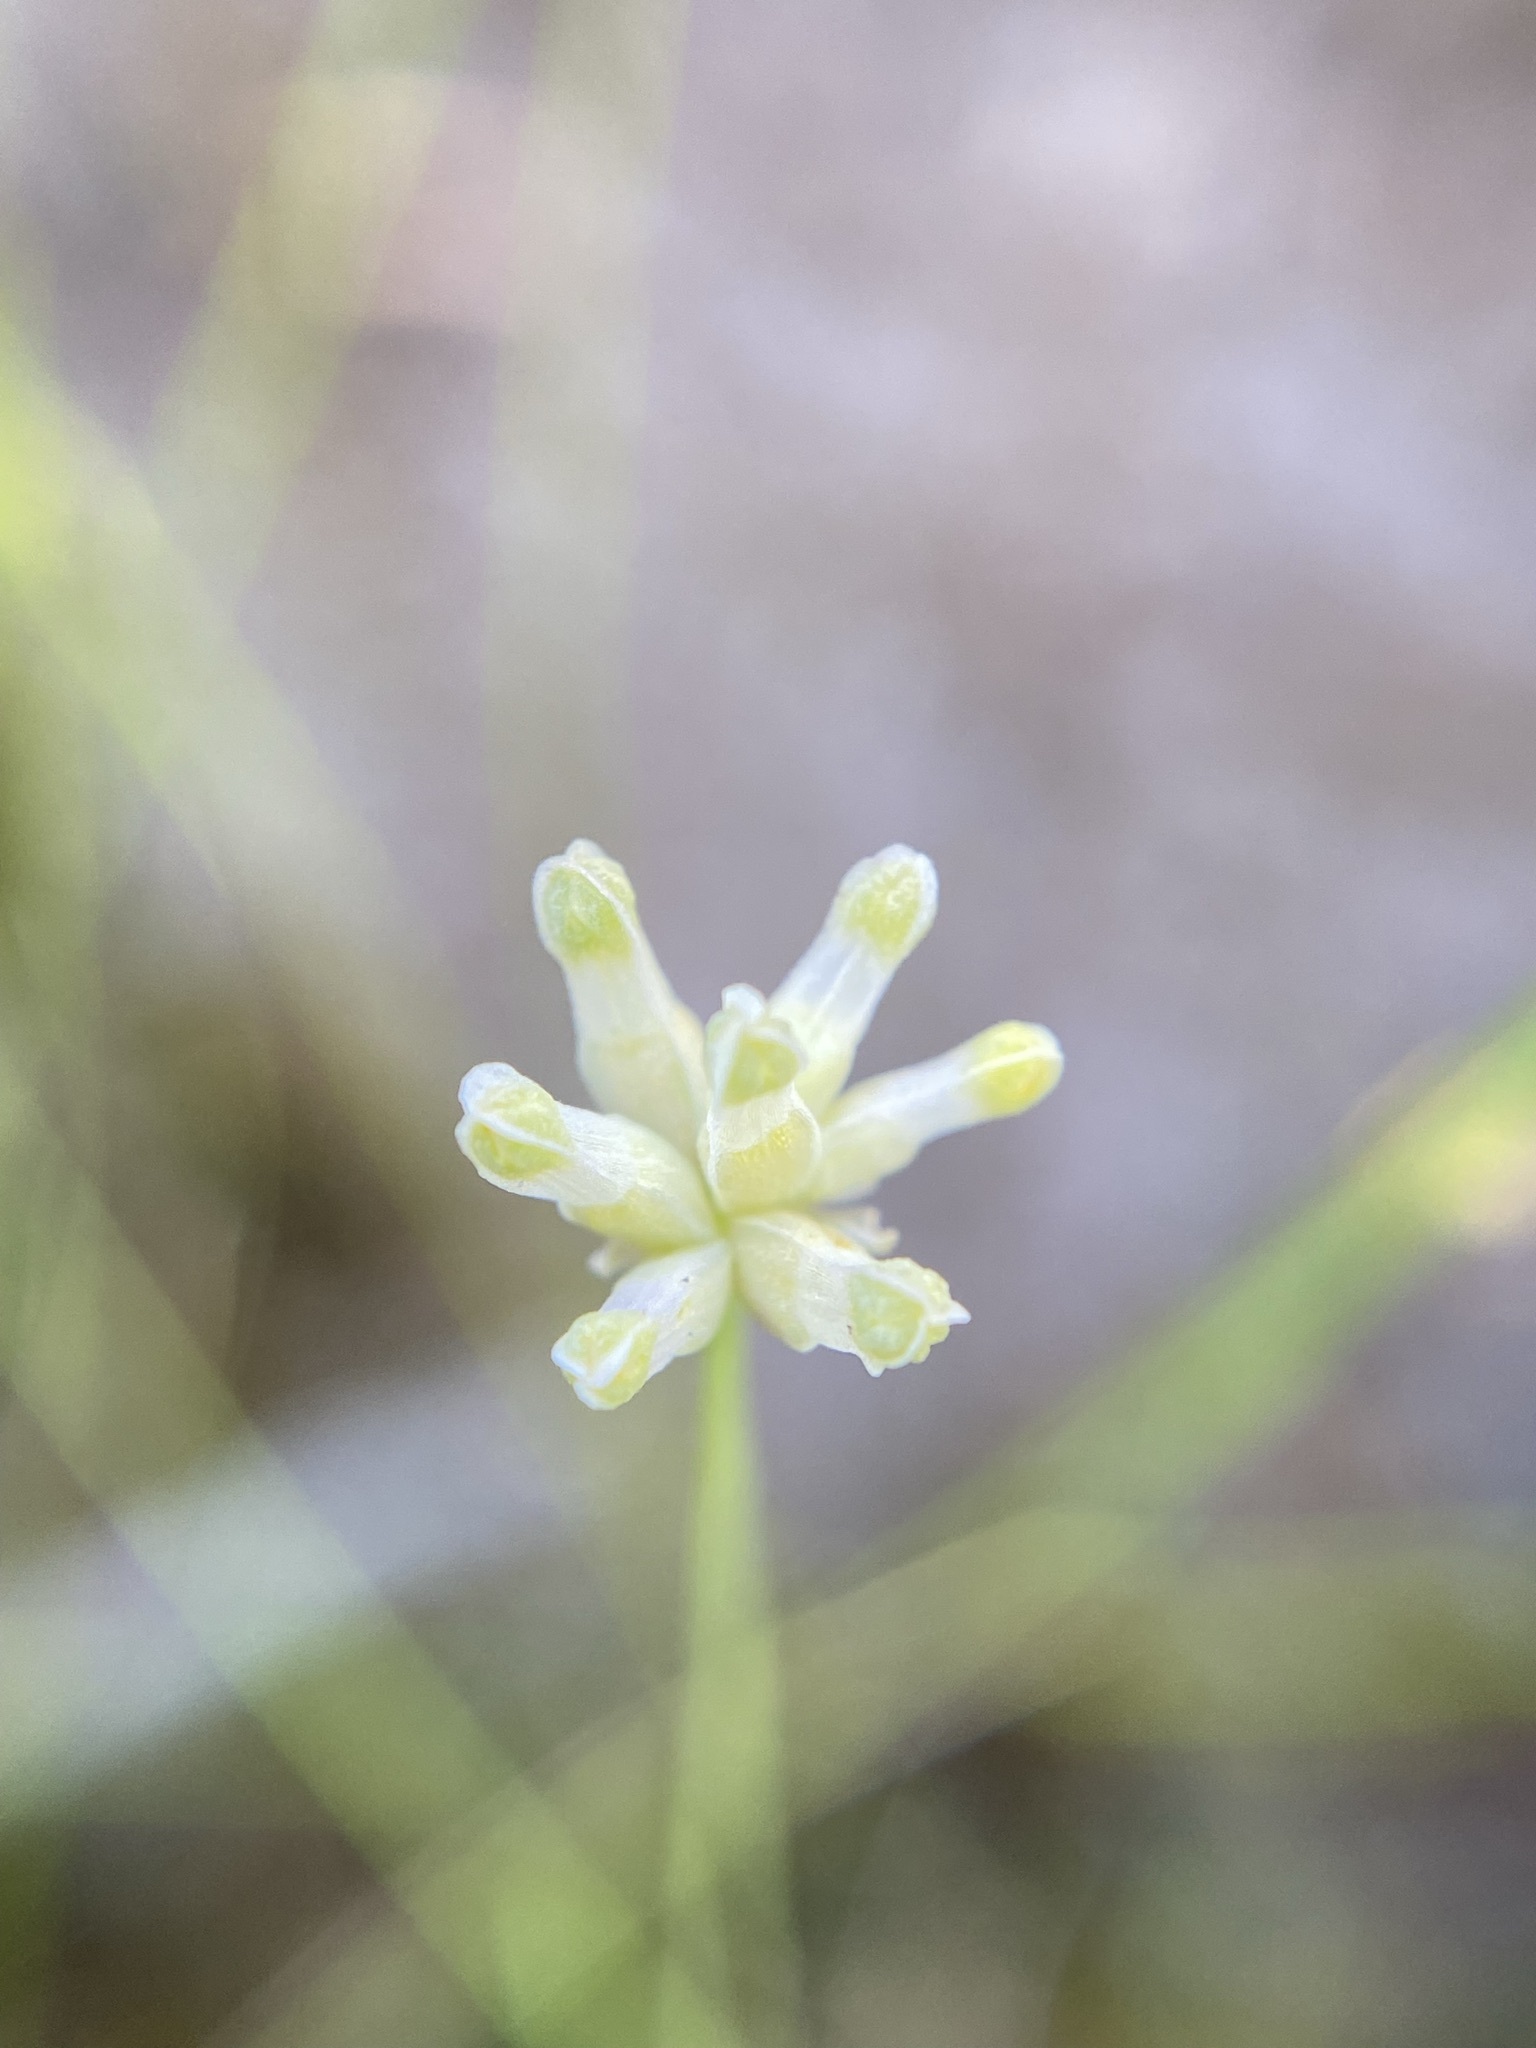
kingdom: Plantae
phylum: Tracheophyta
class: Liliopsida
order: Dioscoreales
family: Burmanniaceae
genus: Burmannia
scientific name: Burmannia capitata
